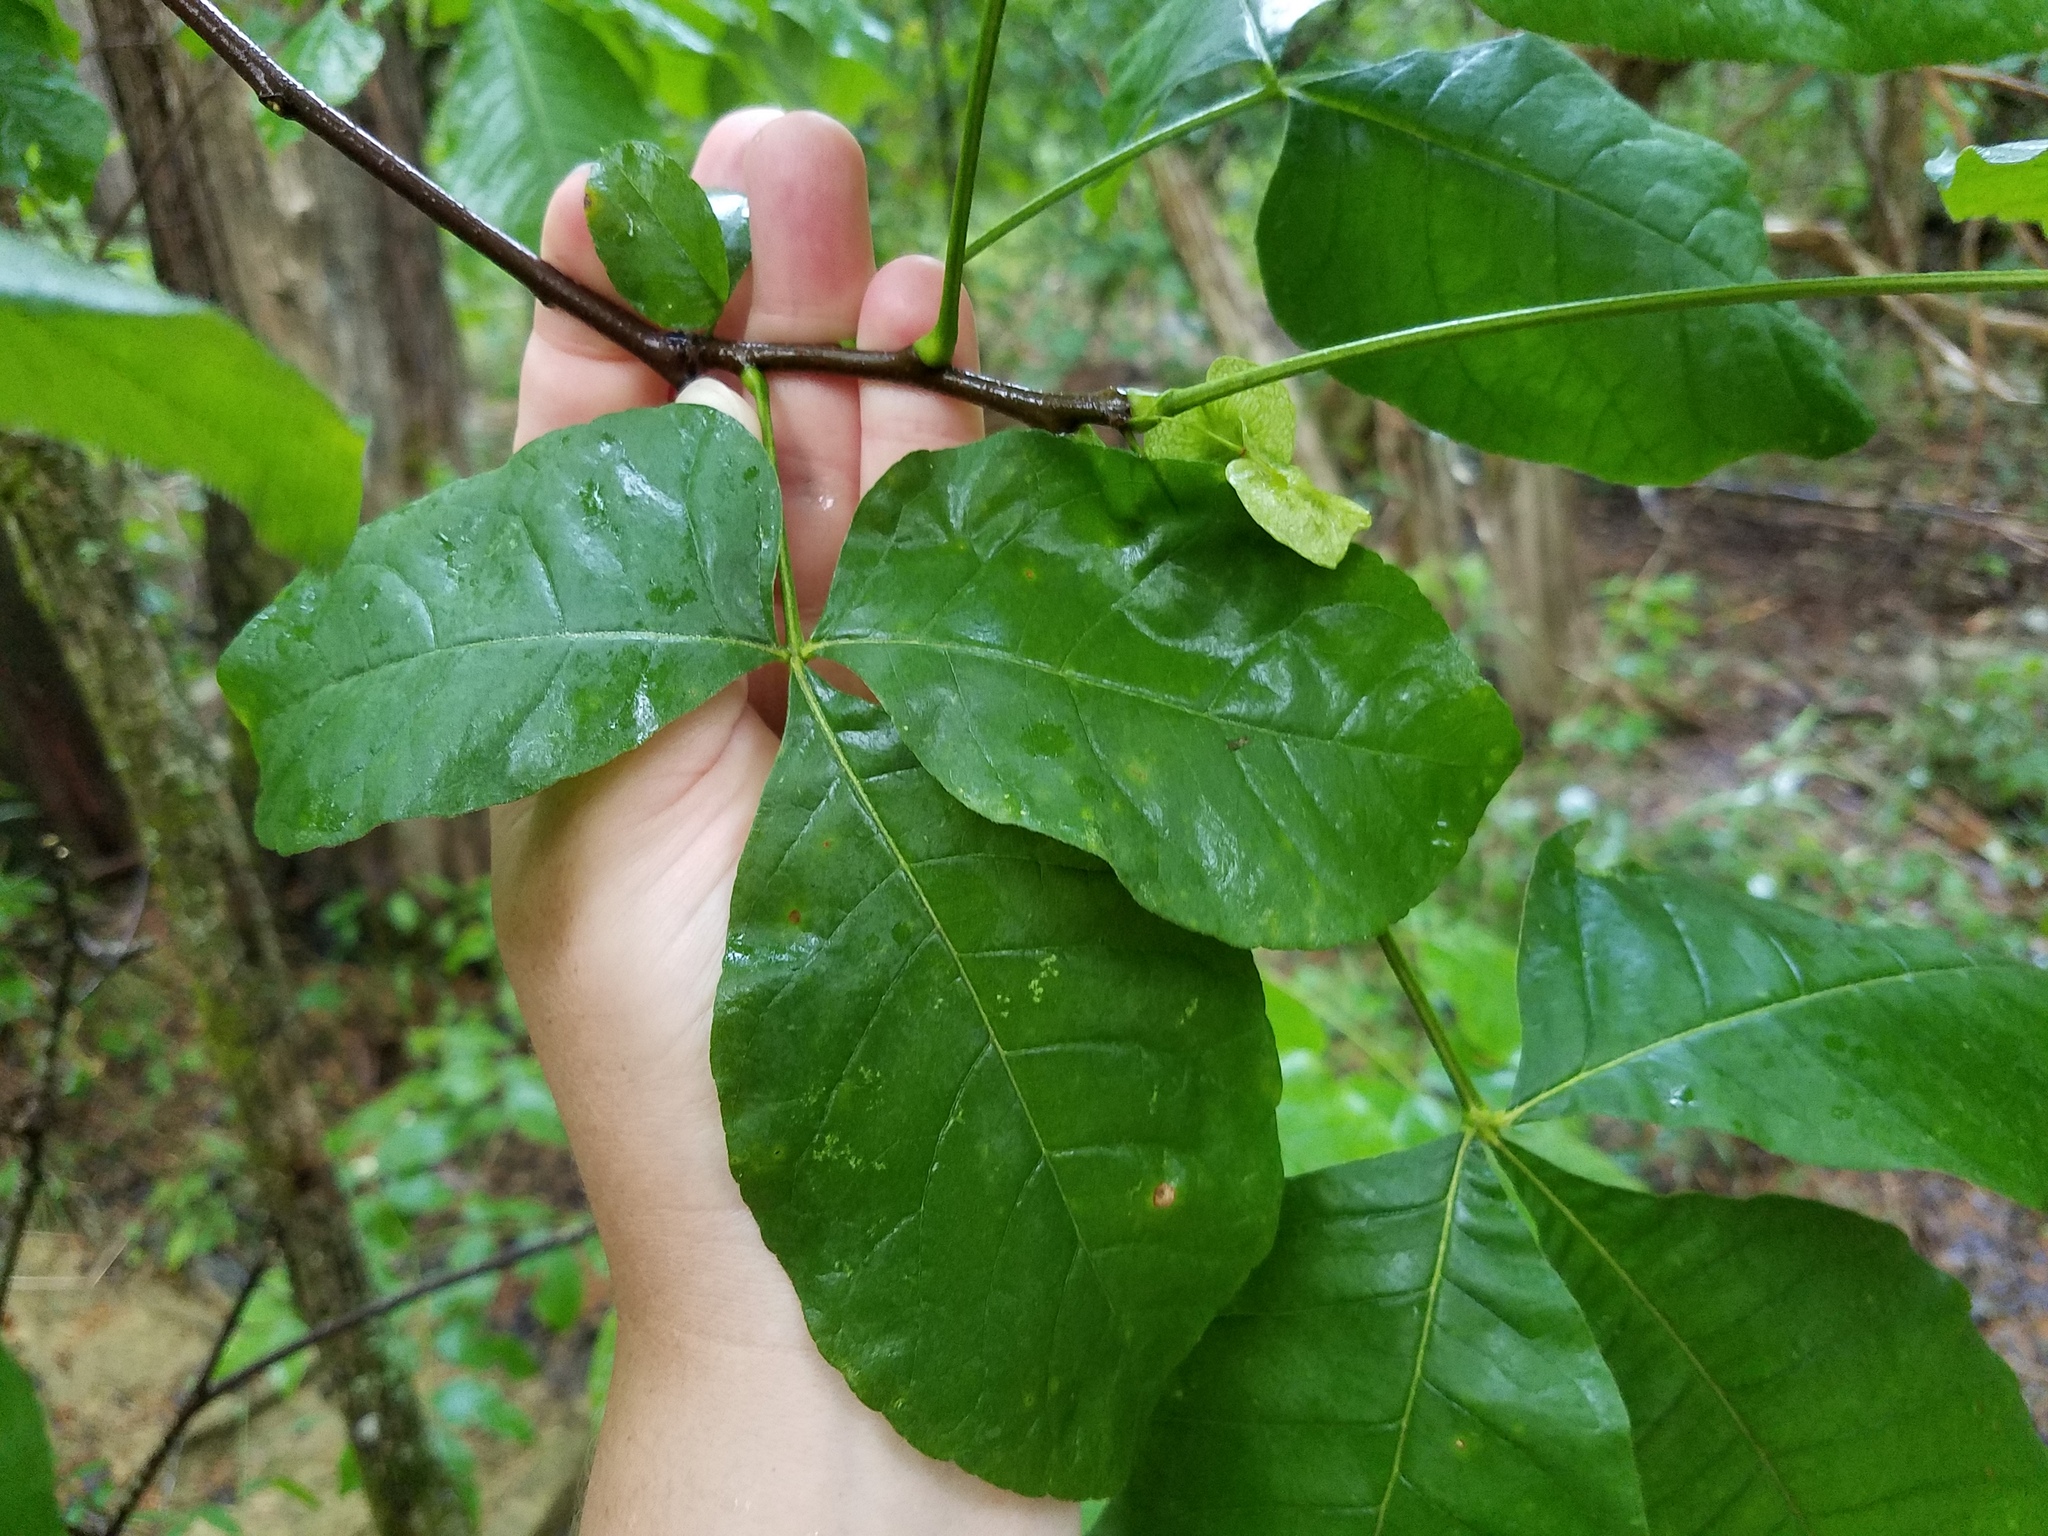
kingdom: Plantae
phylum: Tracheophyta
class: Magnoliopsida
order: Sapindales
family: Rutaceae
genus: Ptelea
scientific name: Ptelea trifoliata
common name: Common hop-tree
